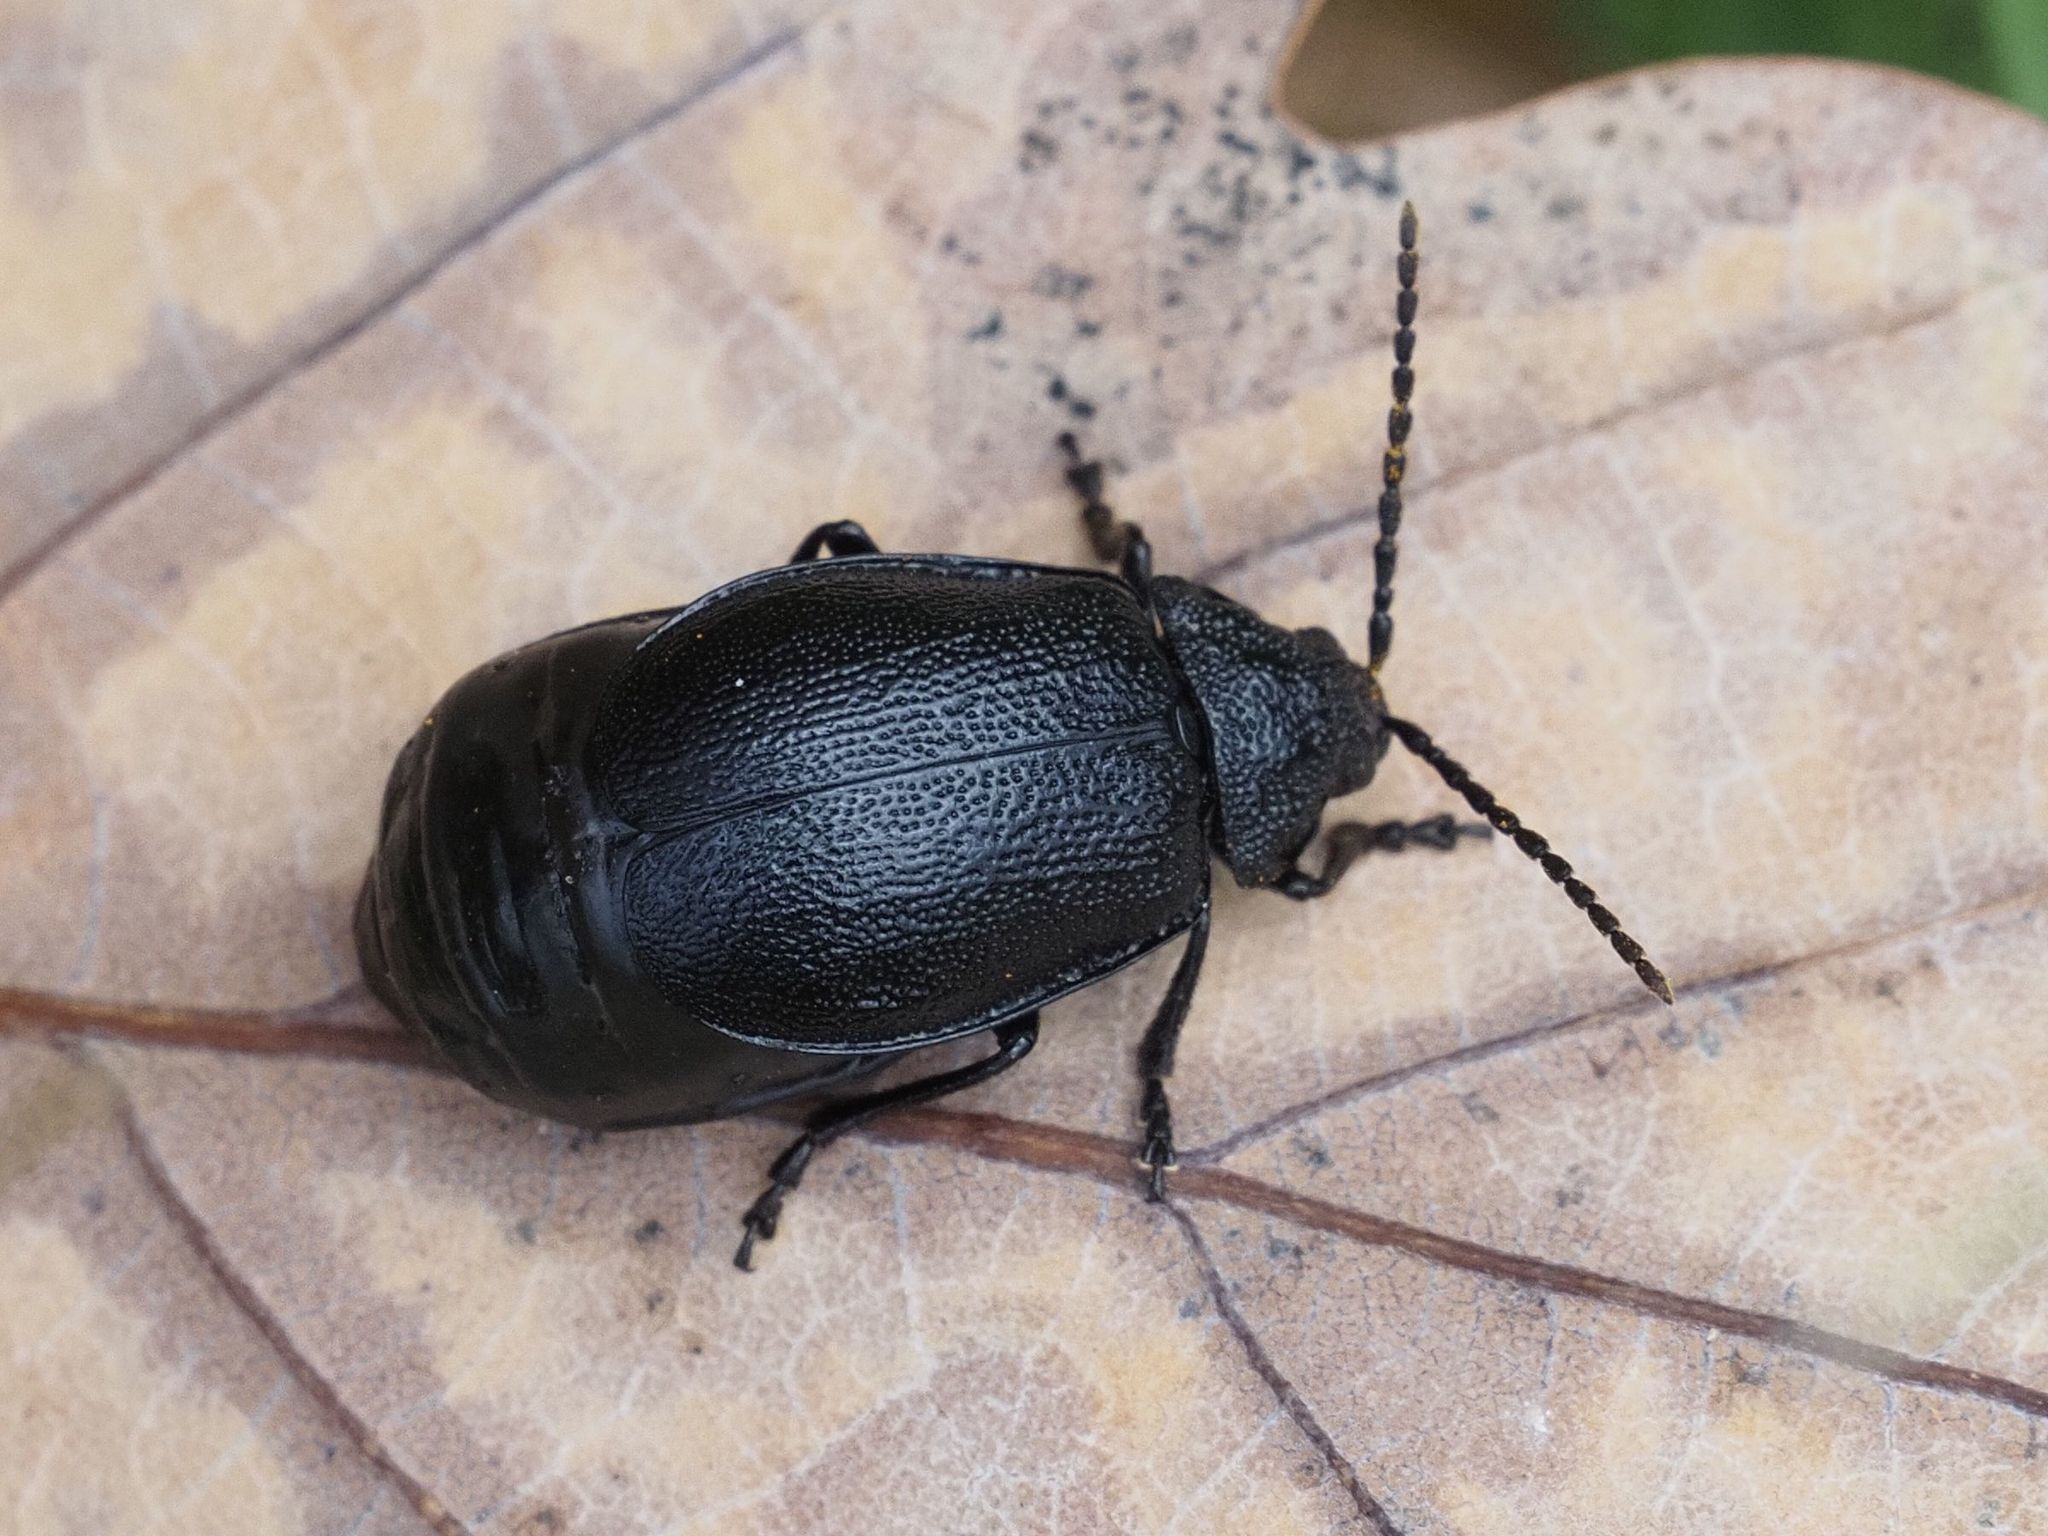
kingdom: Animalia
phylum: Arthropoda
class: Insecta
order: Coleoptera
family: Chrysomelidae
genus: Galeruca
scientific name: Galeruca tanaceti
